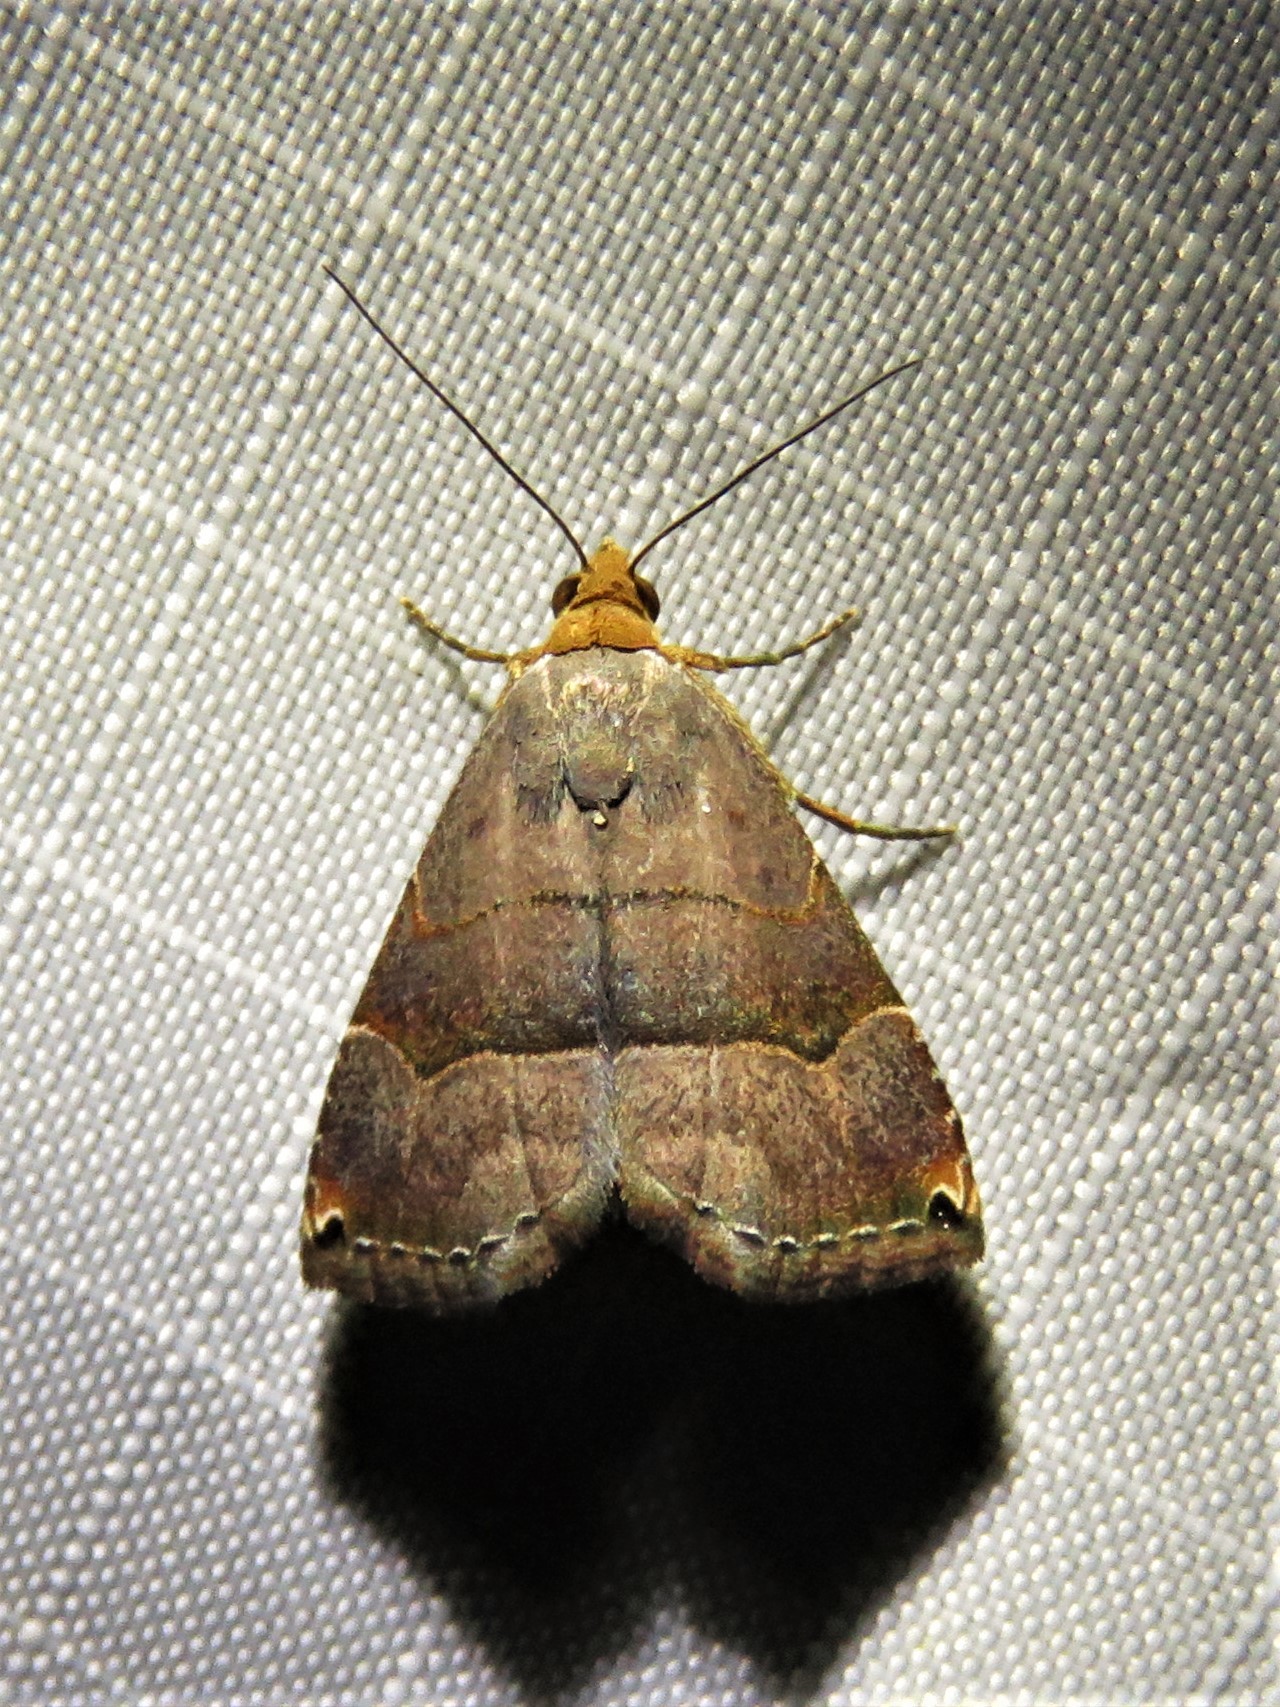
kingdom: Animalia
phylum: Arthropoda
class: Insecta
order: Lepidoptera
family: Noctuidae
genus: Abacena
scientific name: Abacena mundula
